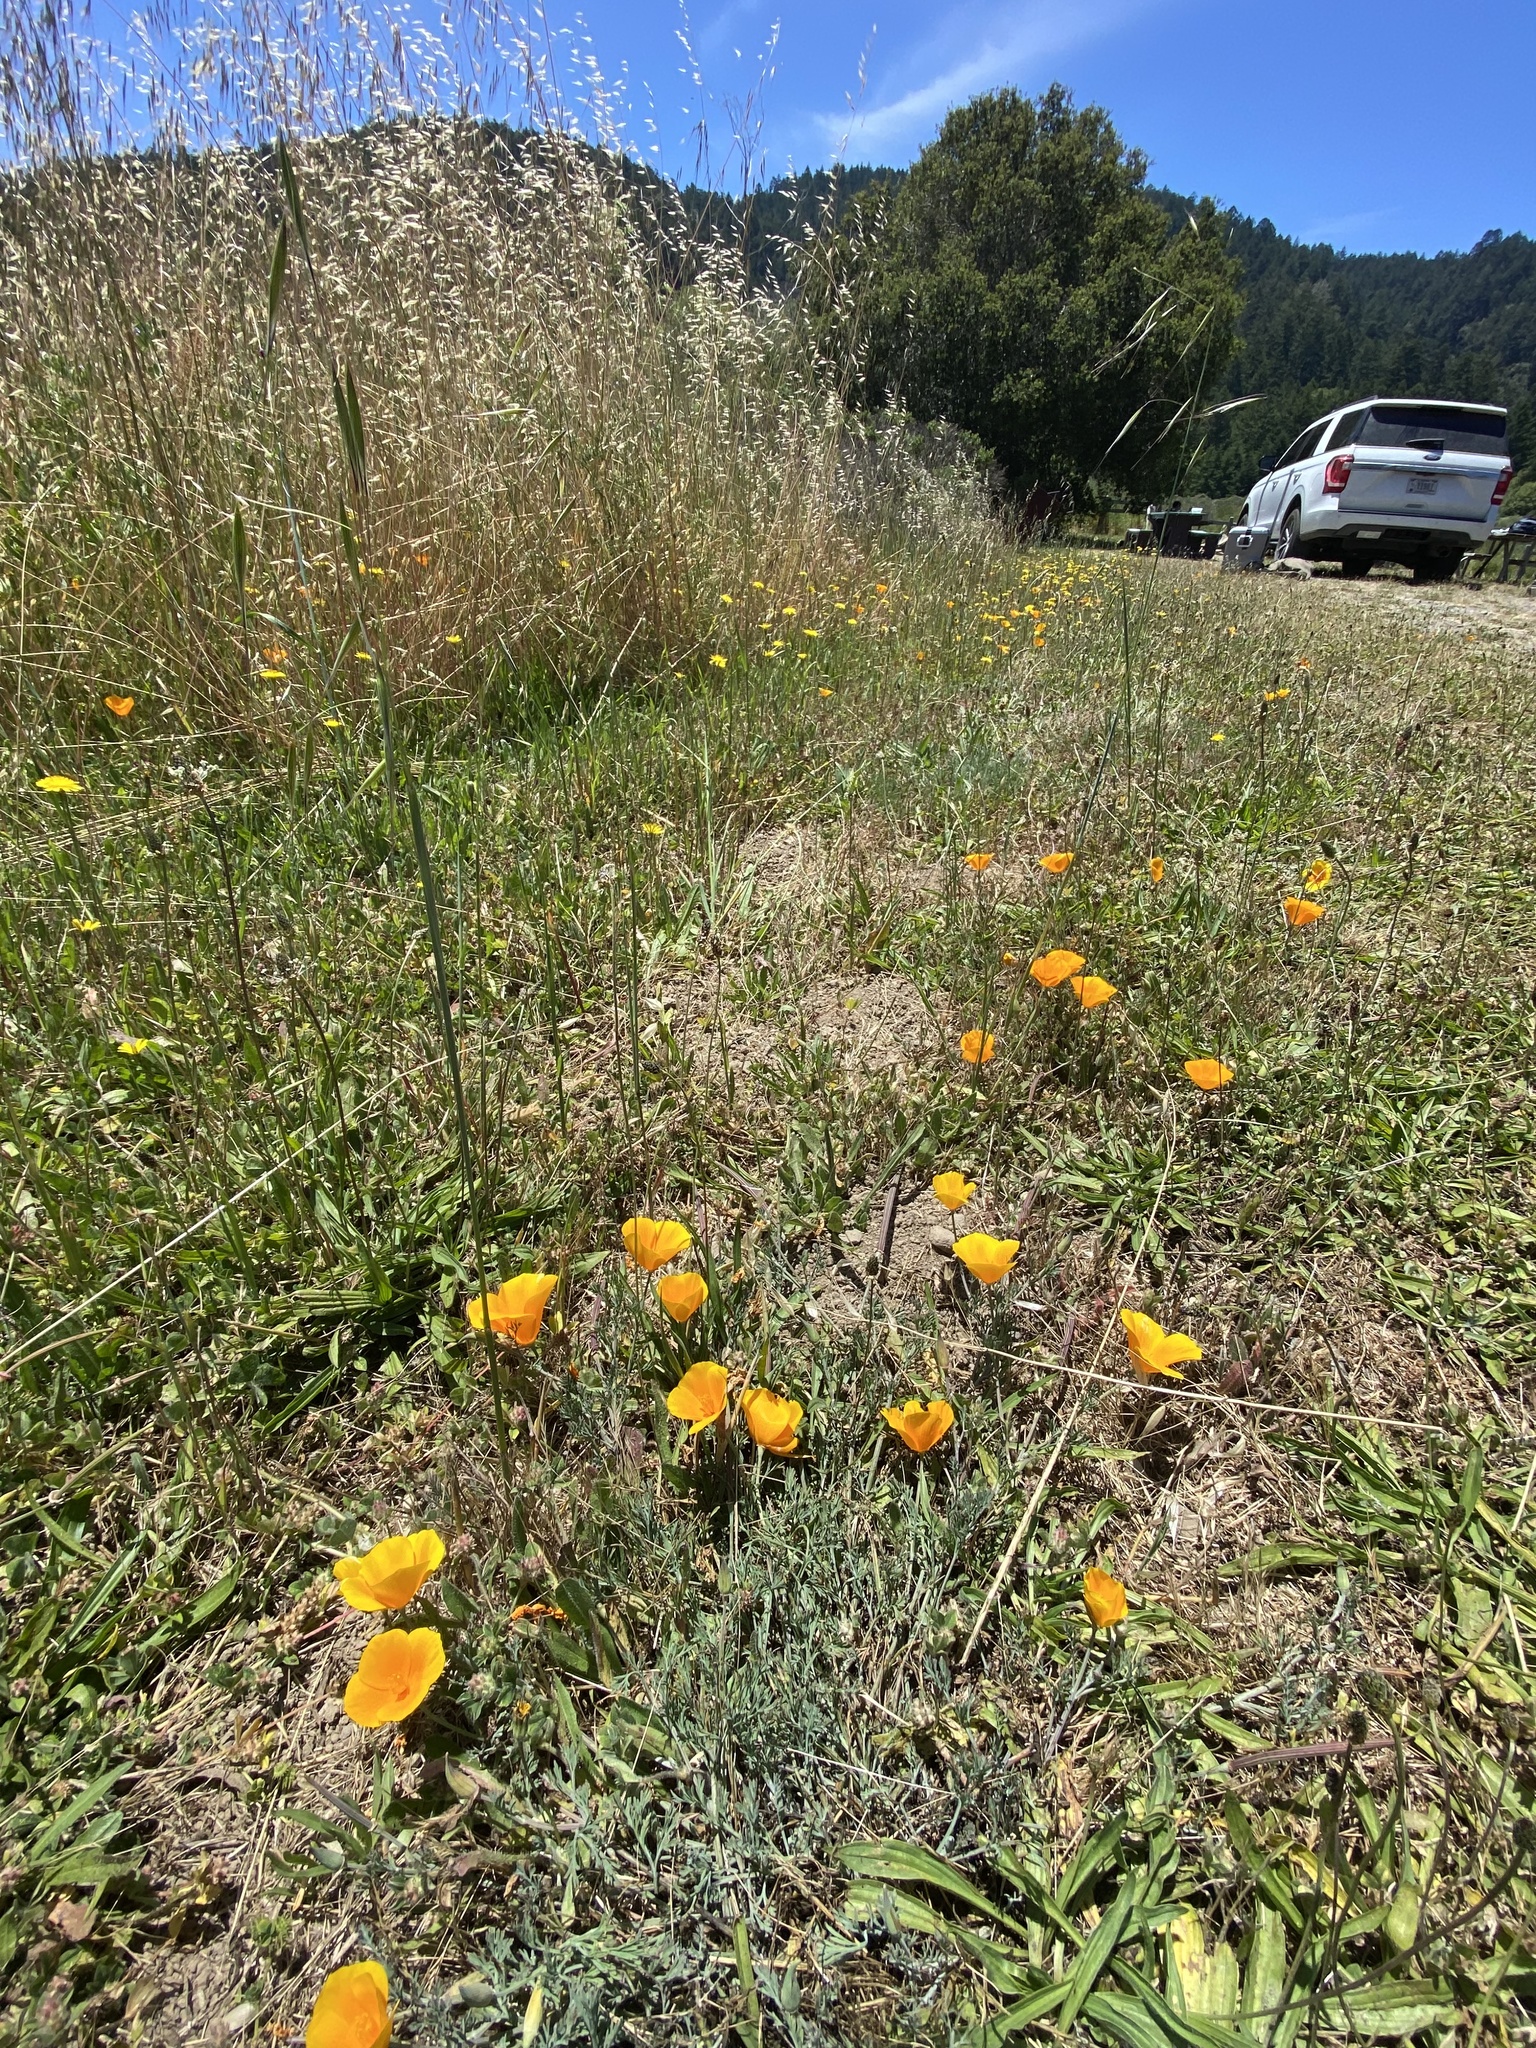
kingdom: Plantae
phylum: Tracheophyta
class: Magnoliopsida
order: Ranunculales
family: Papaveraceae
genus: Eschscholzia
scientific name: Eschscholzia californica
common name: California poppy
